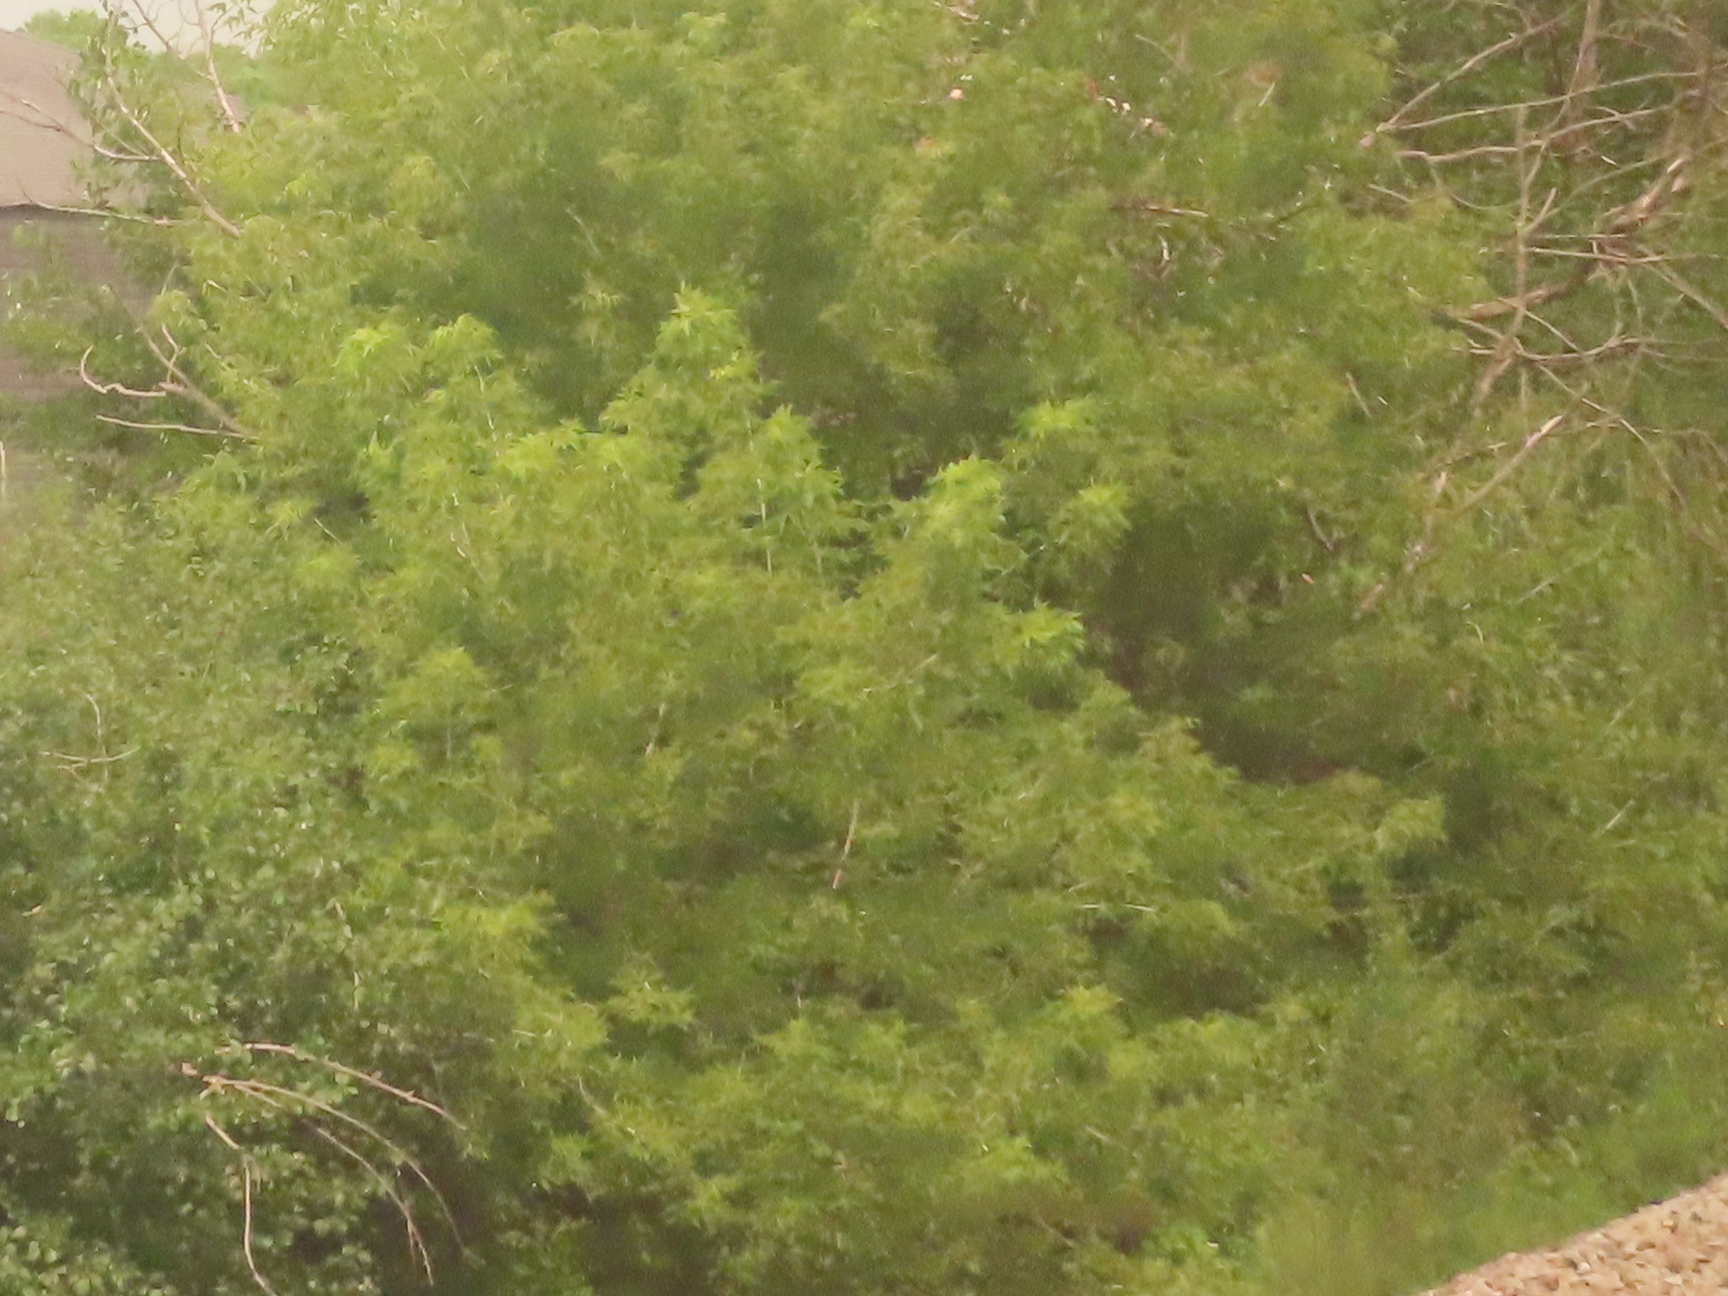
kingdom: Plantae
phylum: Tracheophyta
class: Magnoliopsida
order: Sapindales
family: Sapindaceae
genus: Acer
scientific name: Acer negundo
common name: Ashleaf maple
